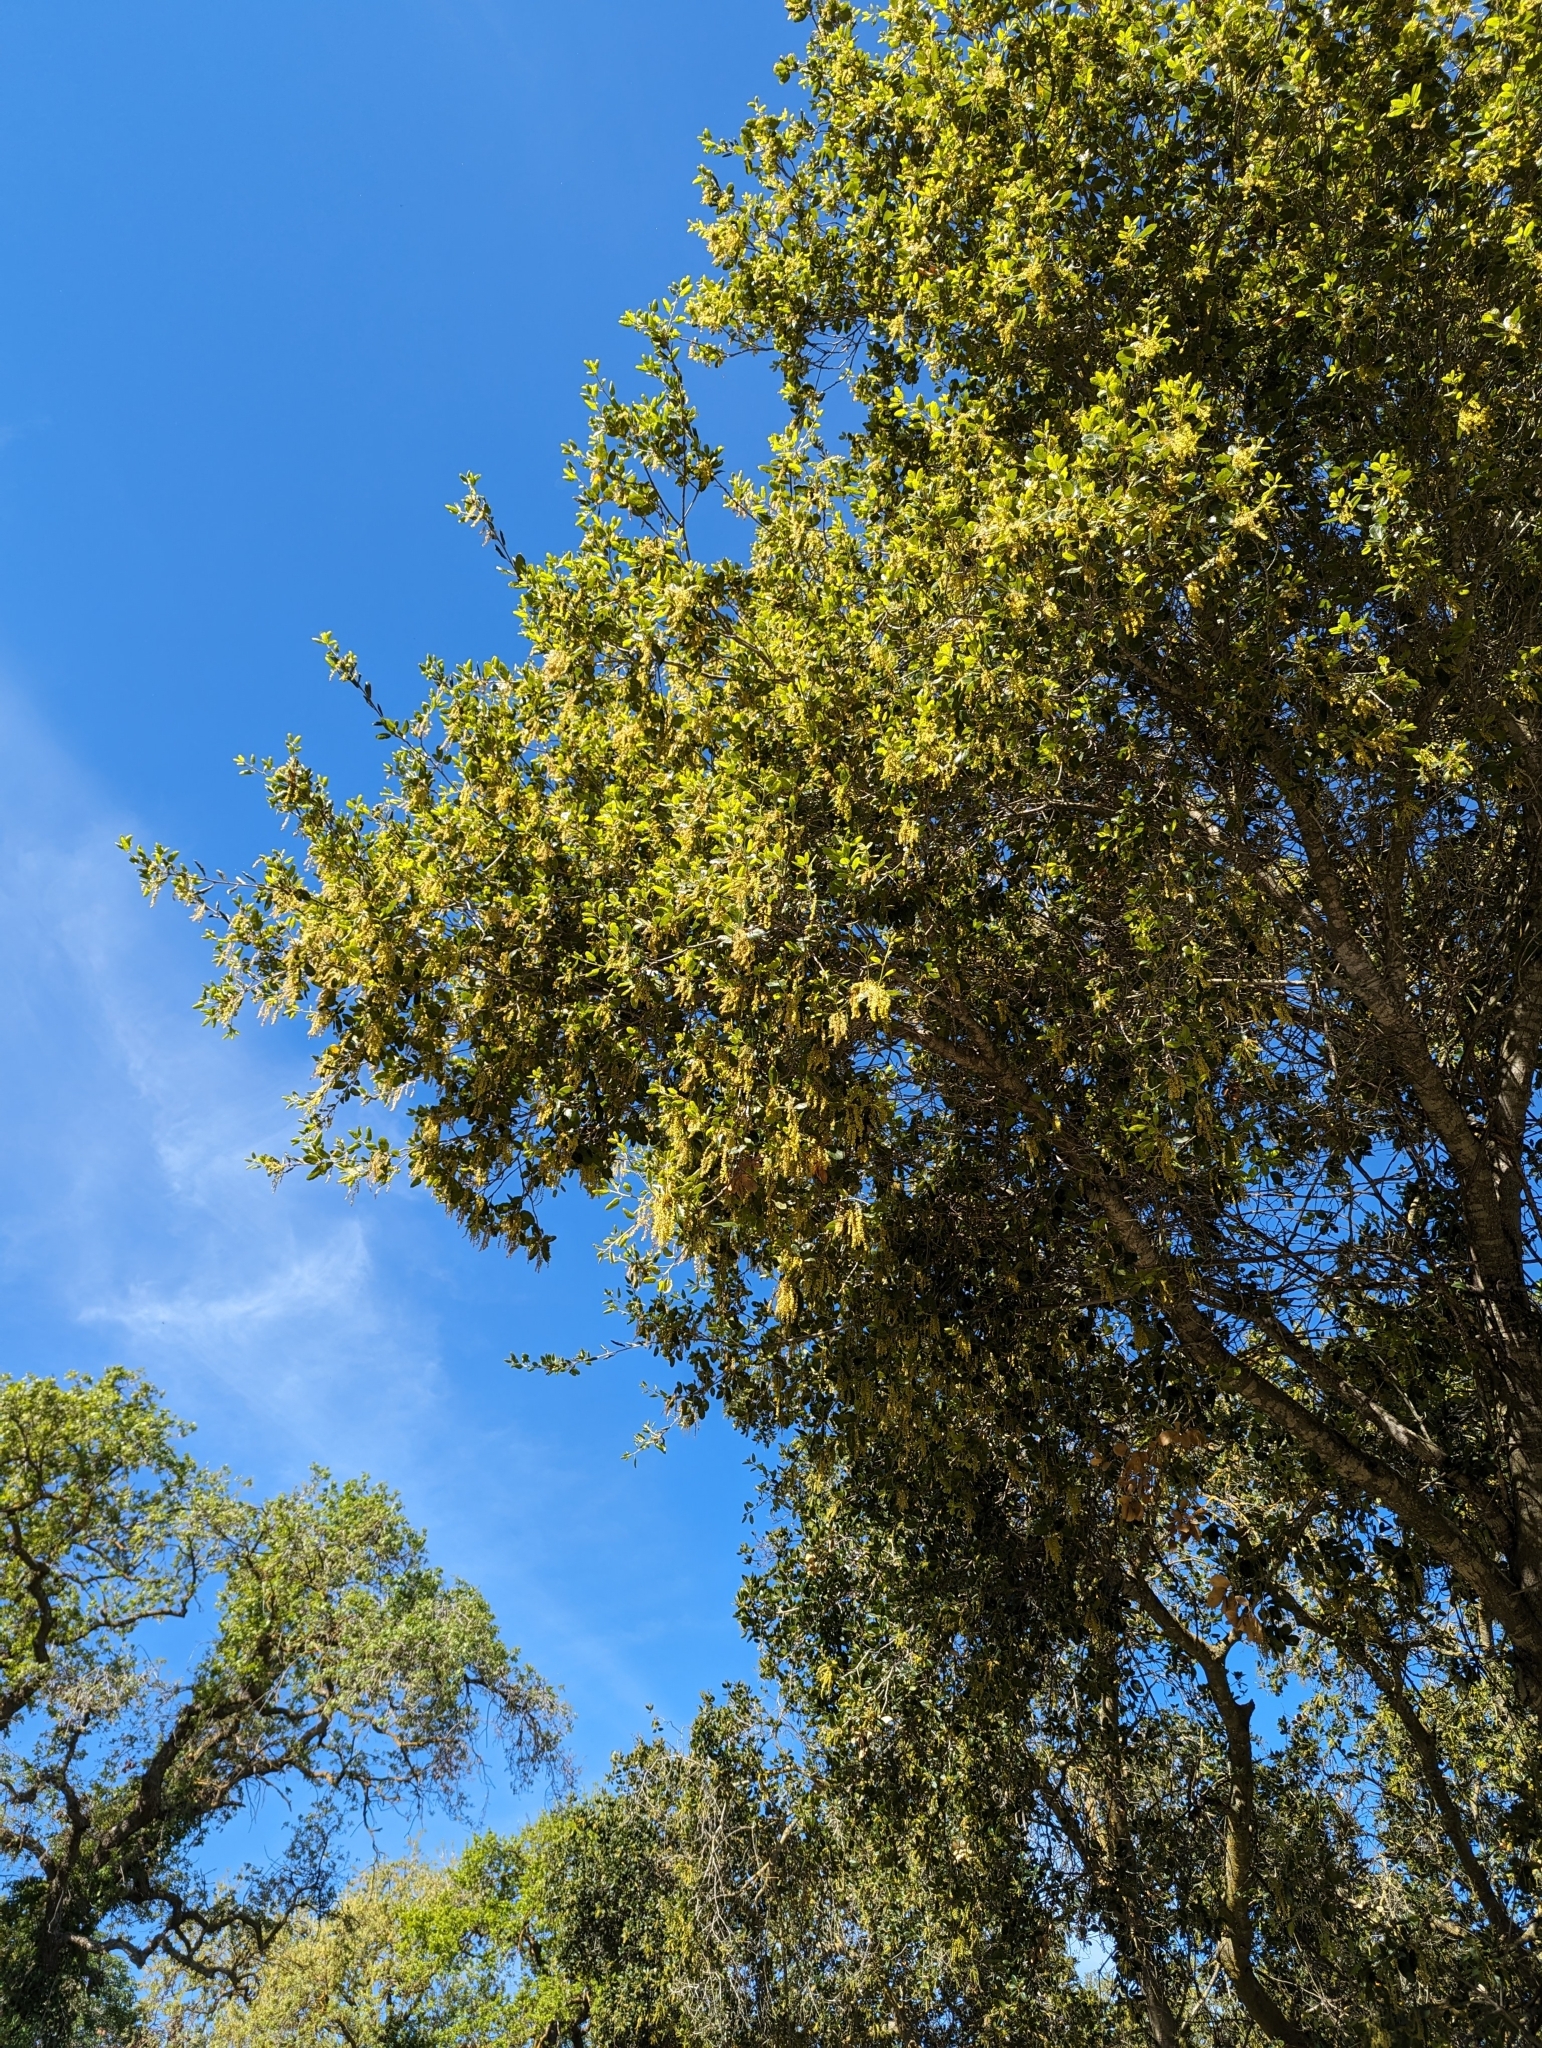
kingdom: Plantae
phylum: Tracheophyta
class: Magnoliopsida
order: Fagales
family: Fagaceae
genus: Quercus
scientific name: Quercus agrifolia
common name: California live oak
